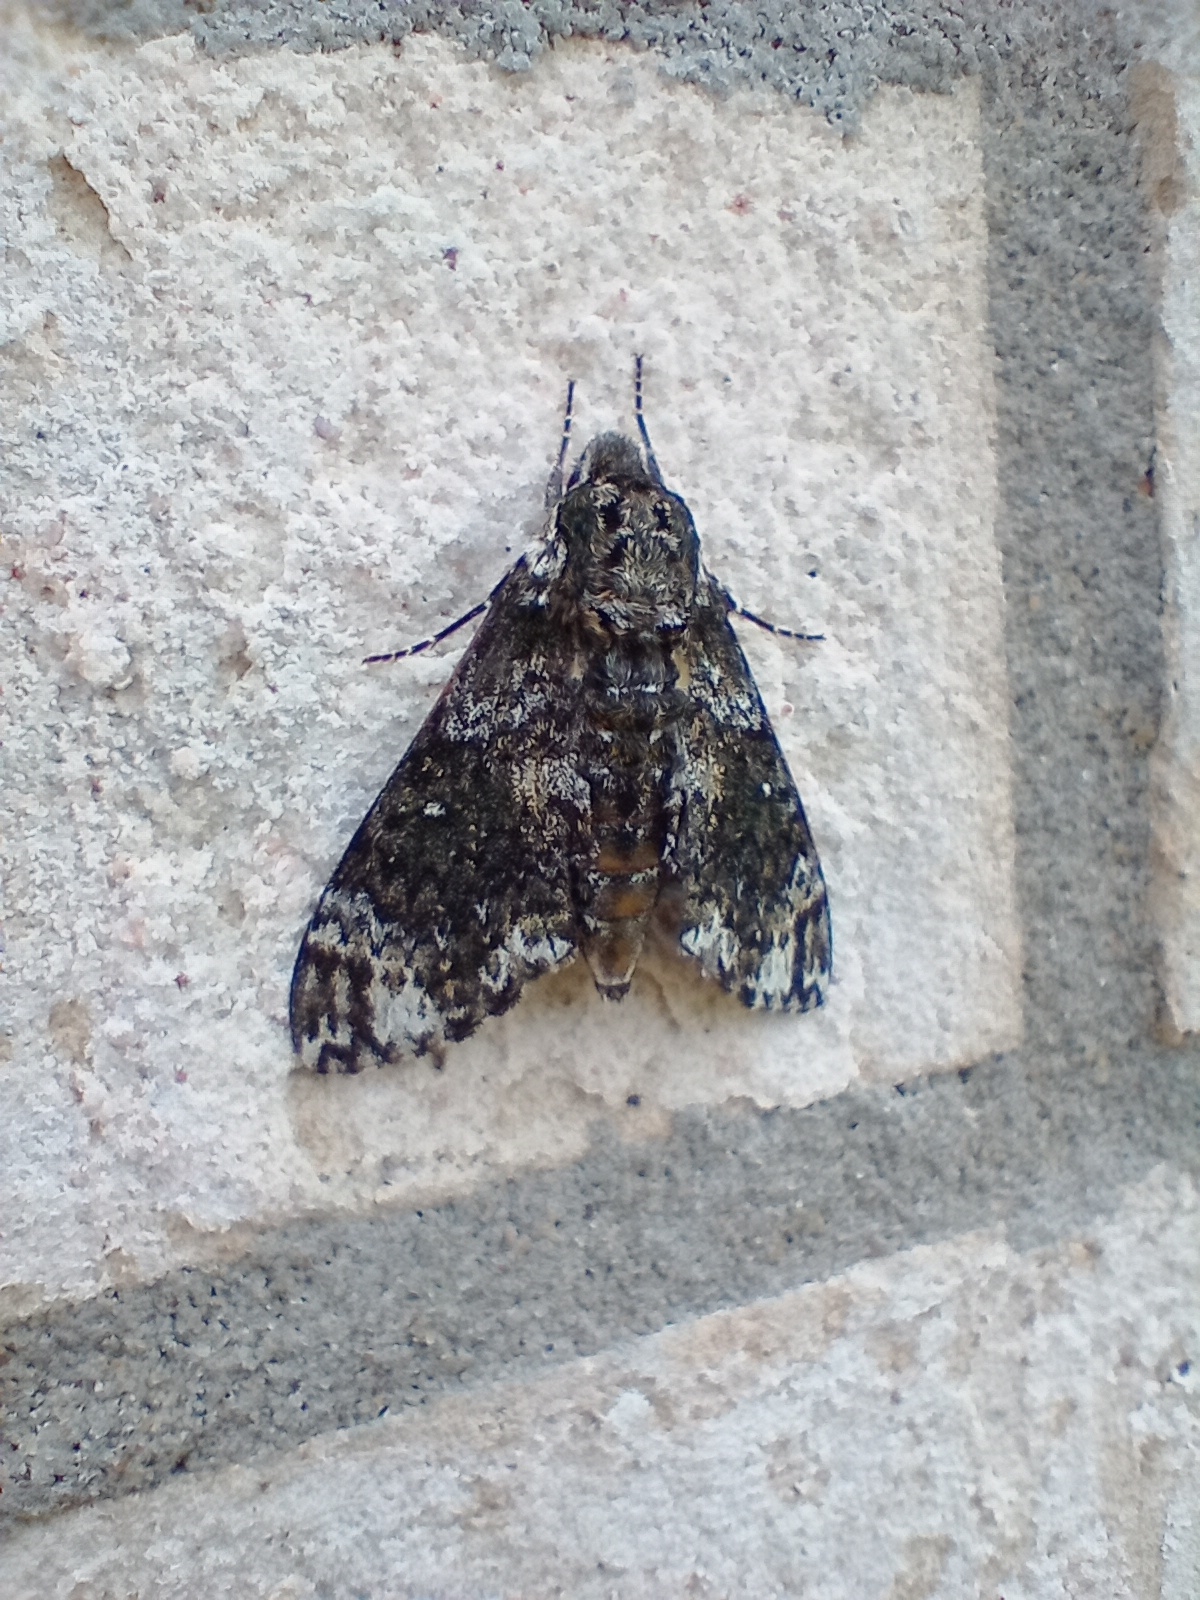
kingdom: Animalia
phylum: Arthropoda
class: Insecta
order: Lepidoptera
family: Sphingidae
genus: Dolba
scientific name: Dolba hyloeus
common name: Pawpaw sphinx
